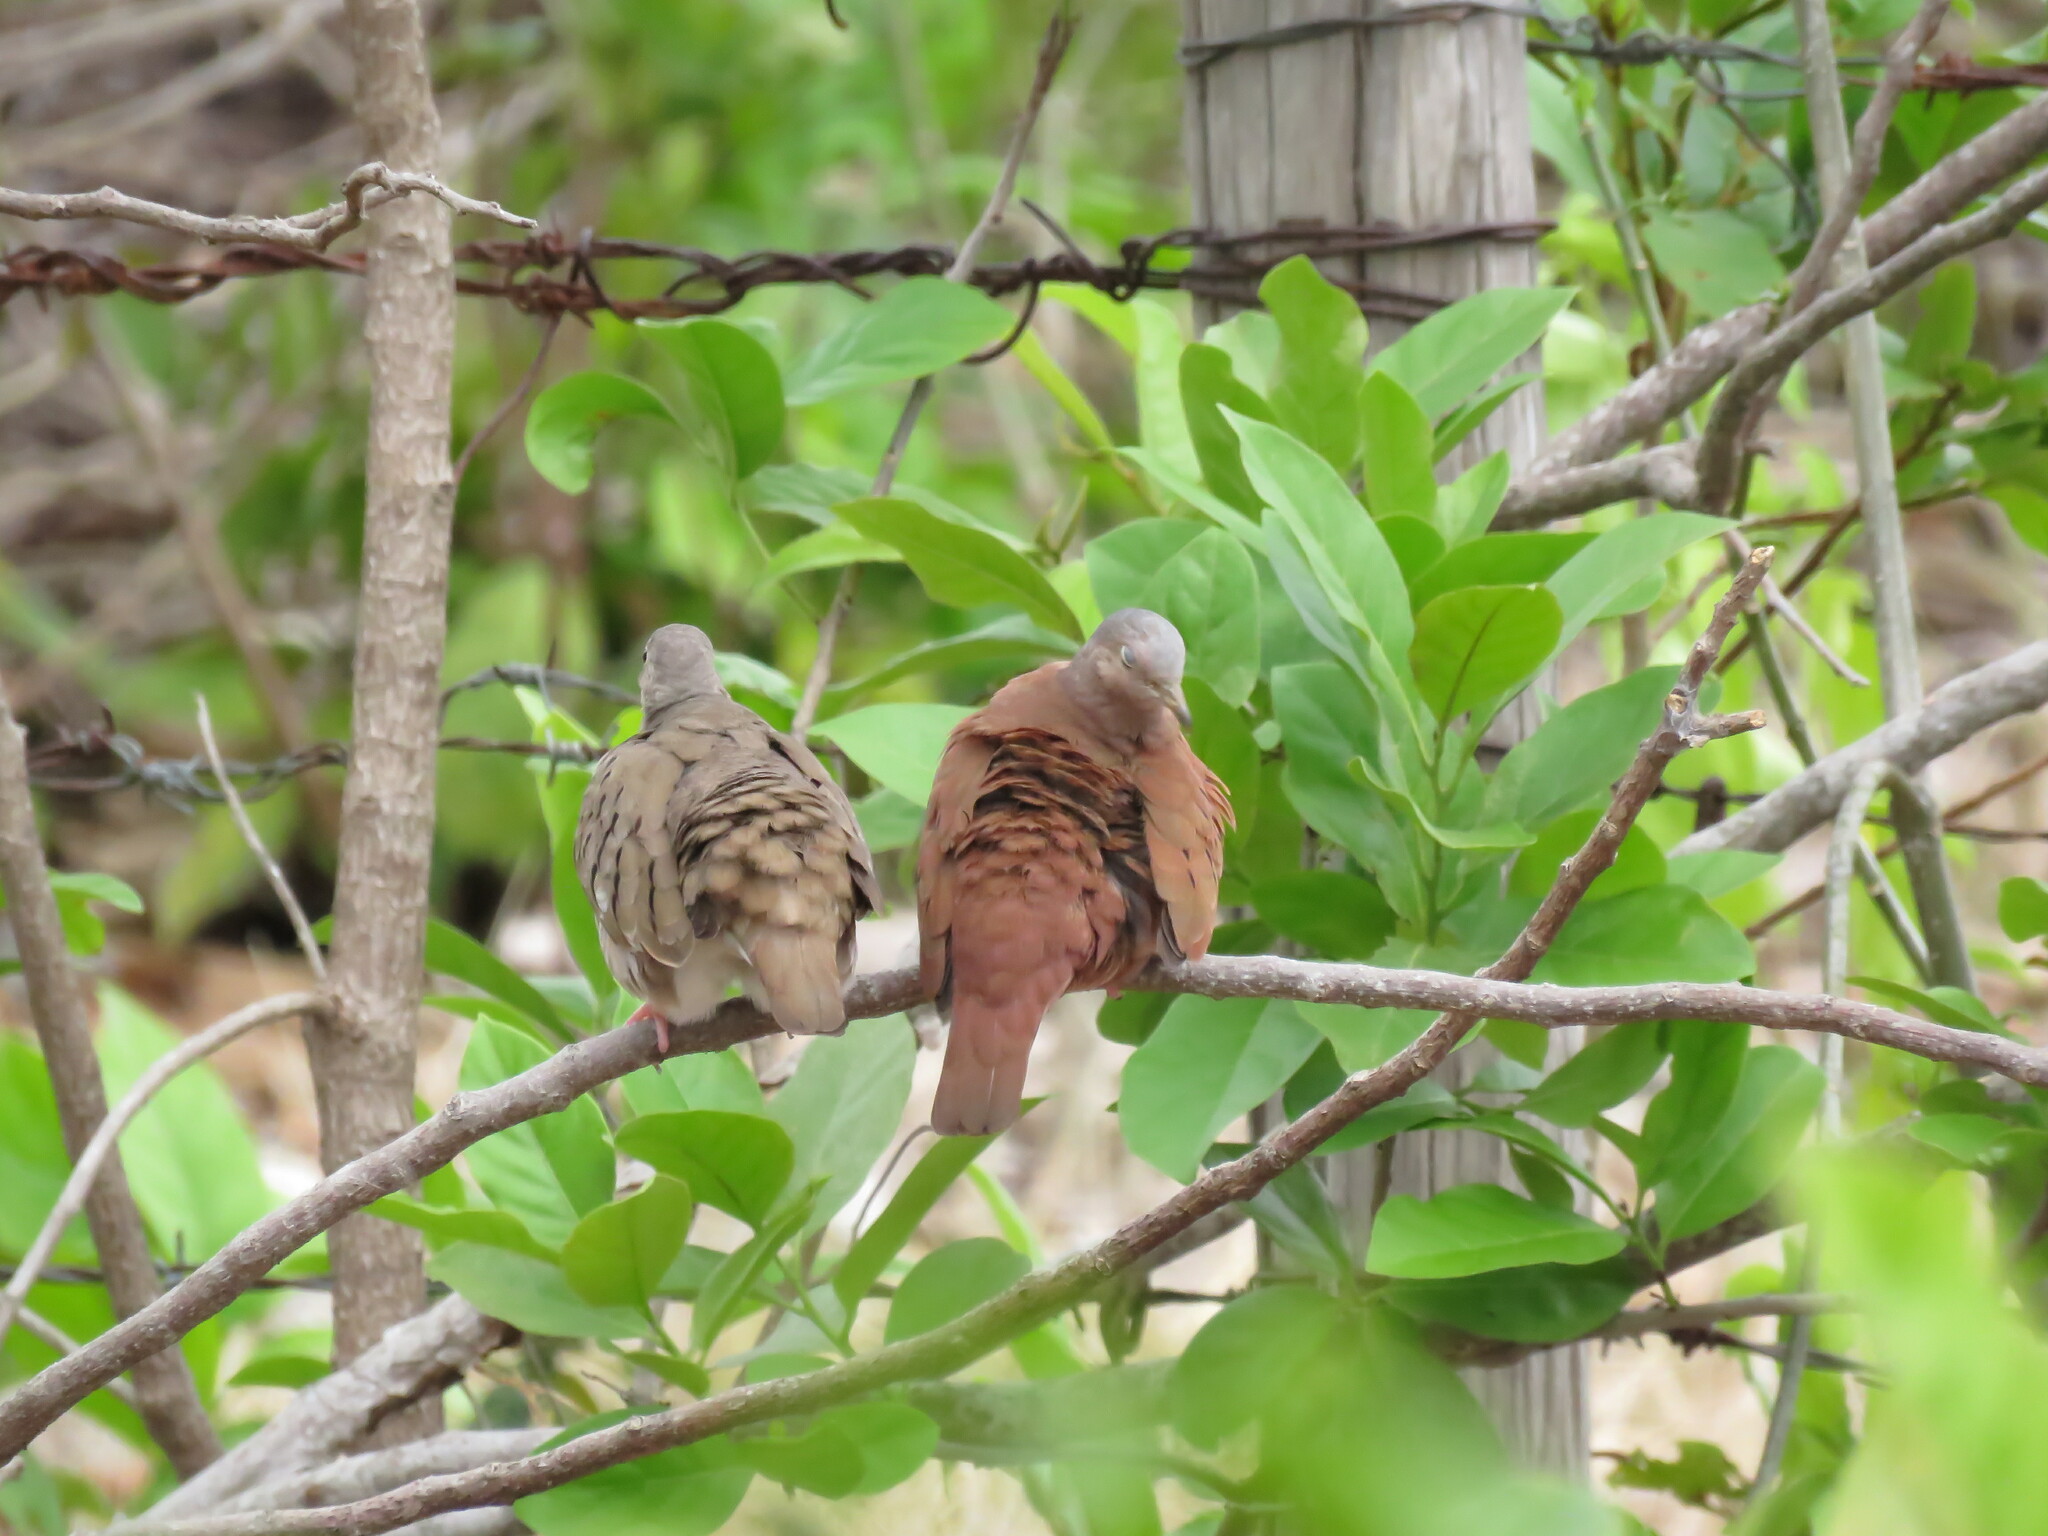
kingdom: Animalia
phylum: Chordata
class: Aves
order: Columbiformes
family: Columbidae
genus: Columbina
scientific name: Columbina talpacoti
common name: Ruddy ground dove
